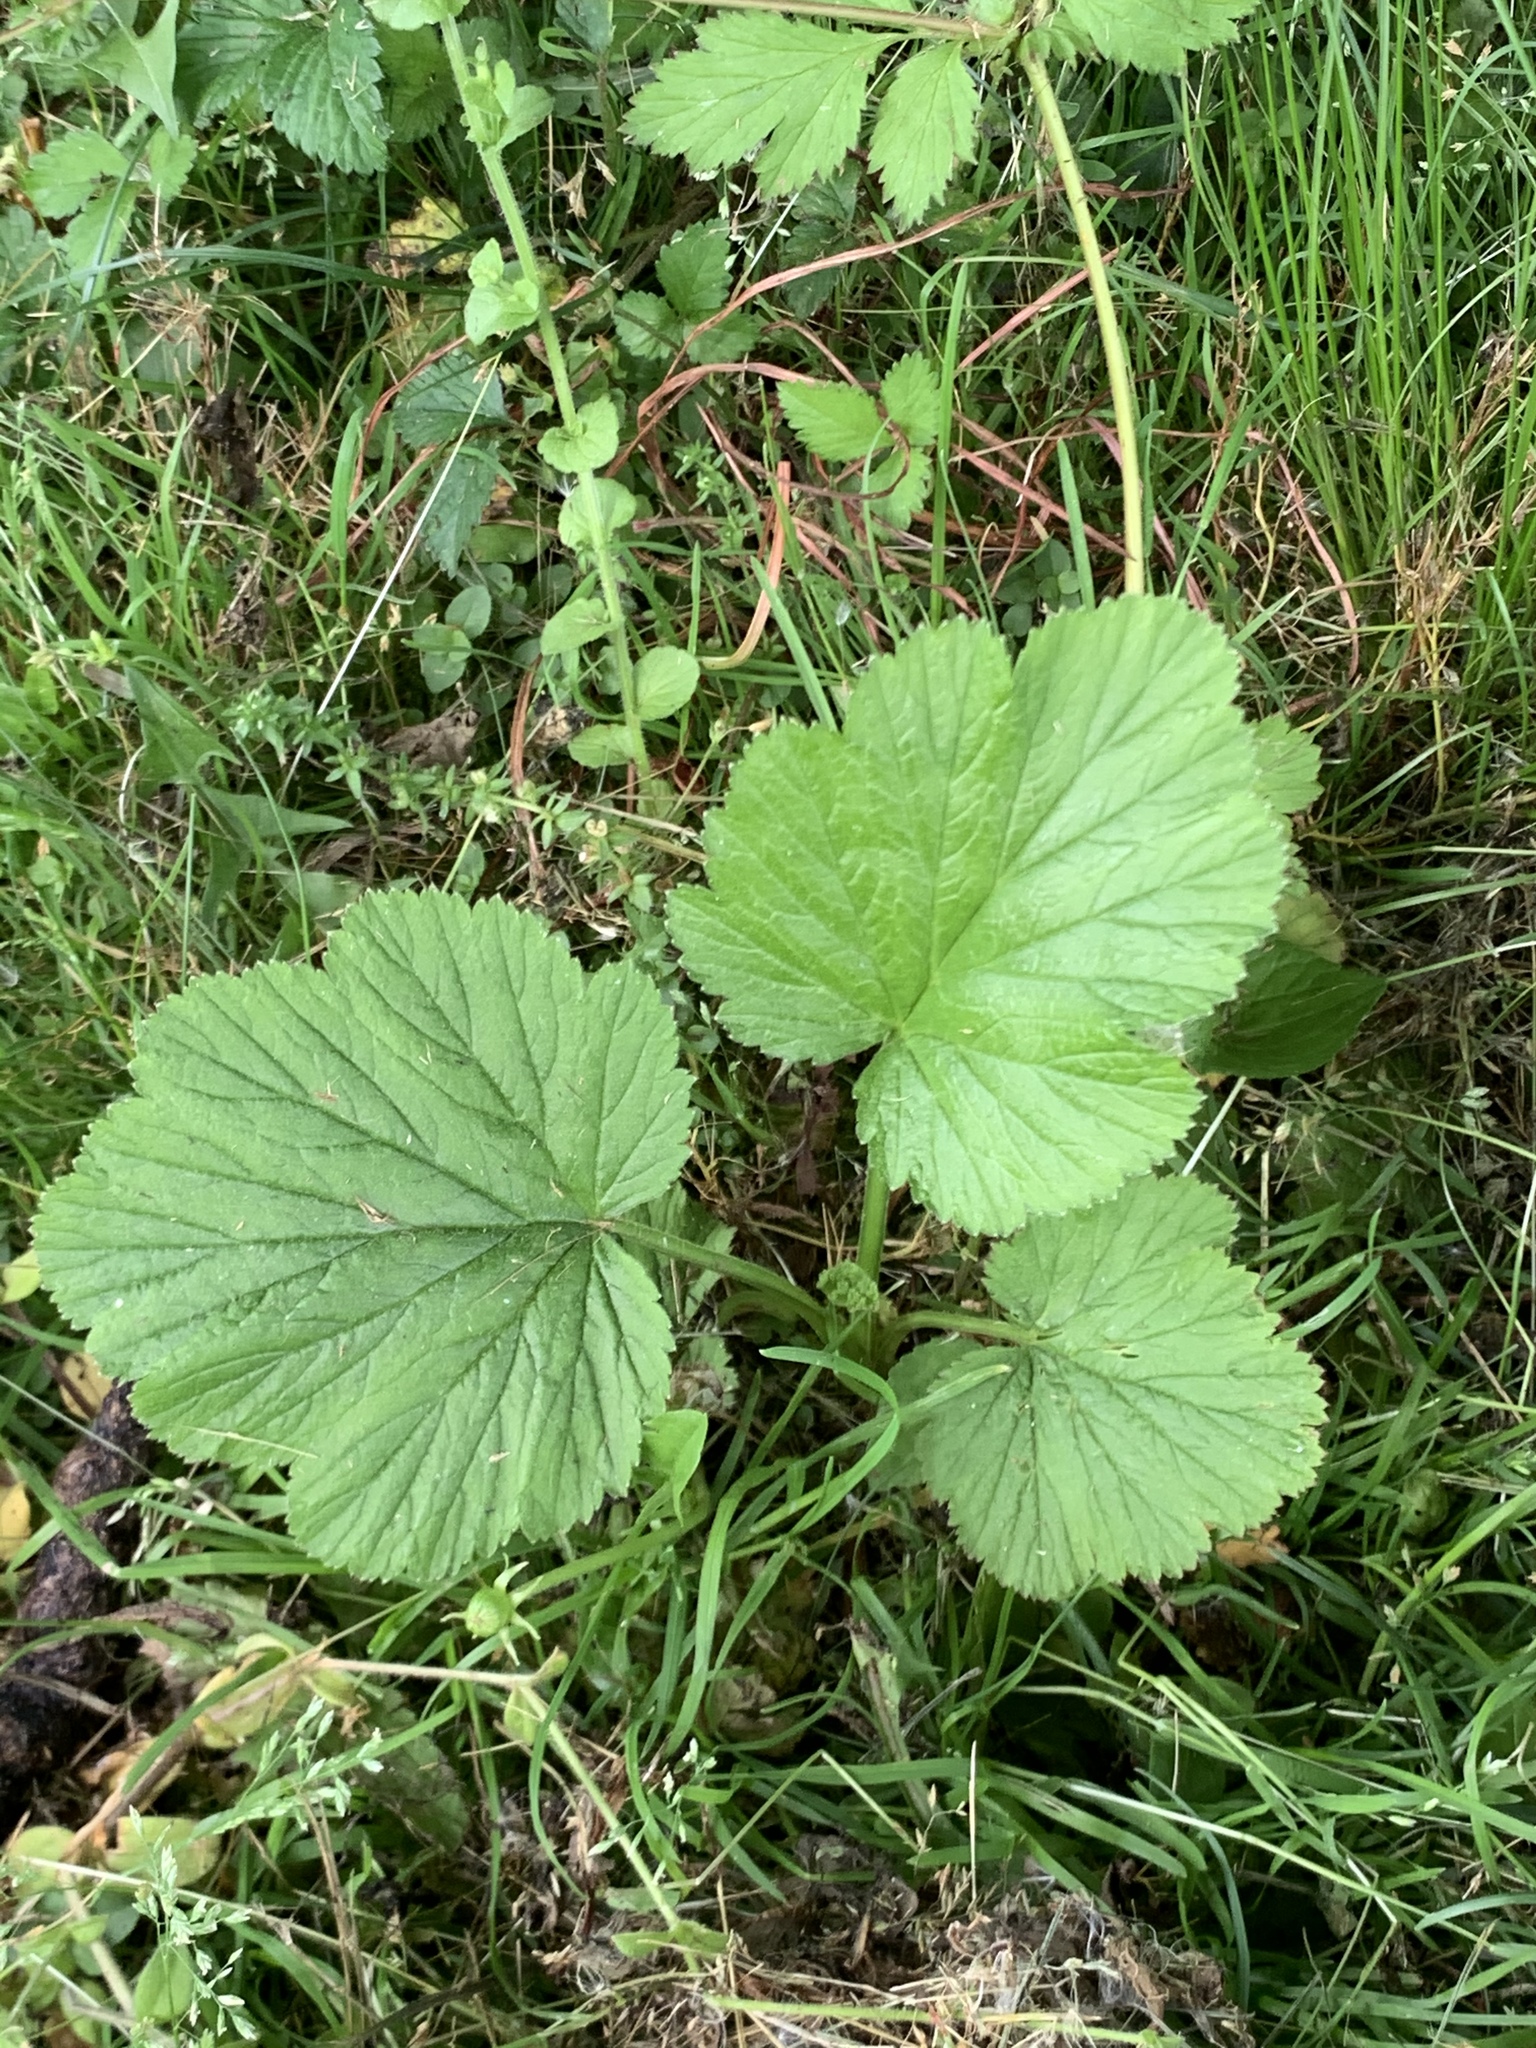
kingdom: Plantae
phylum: Tracheophyta
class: Magnoliopsida
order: Rosales
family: Rosaceae
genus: Geum
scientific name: Geum vernum
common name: Spring avens
